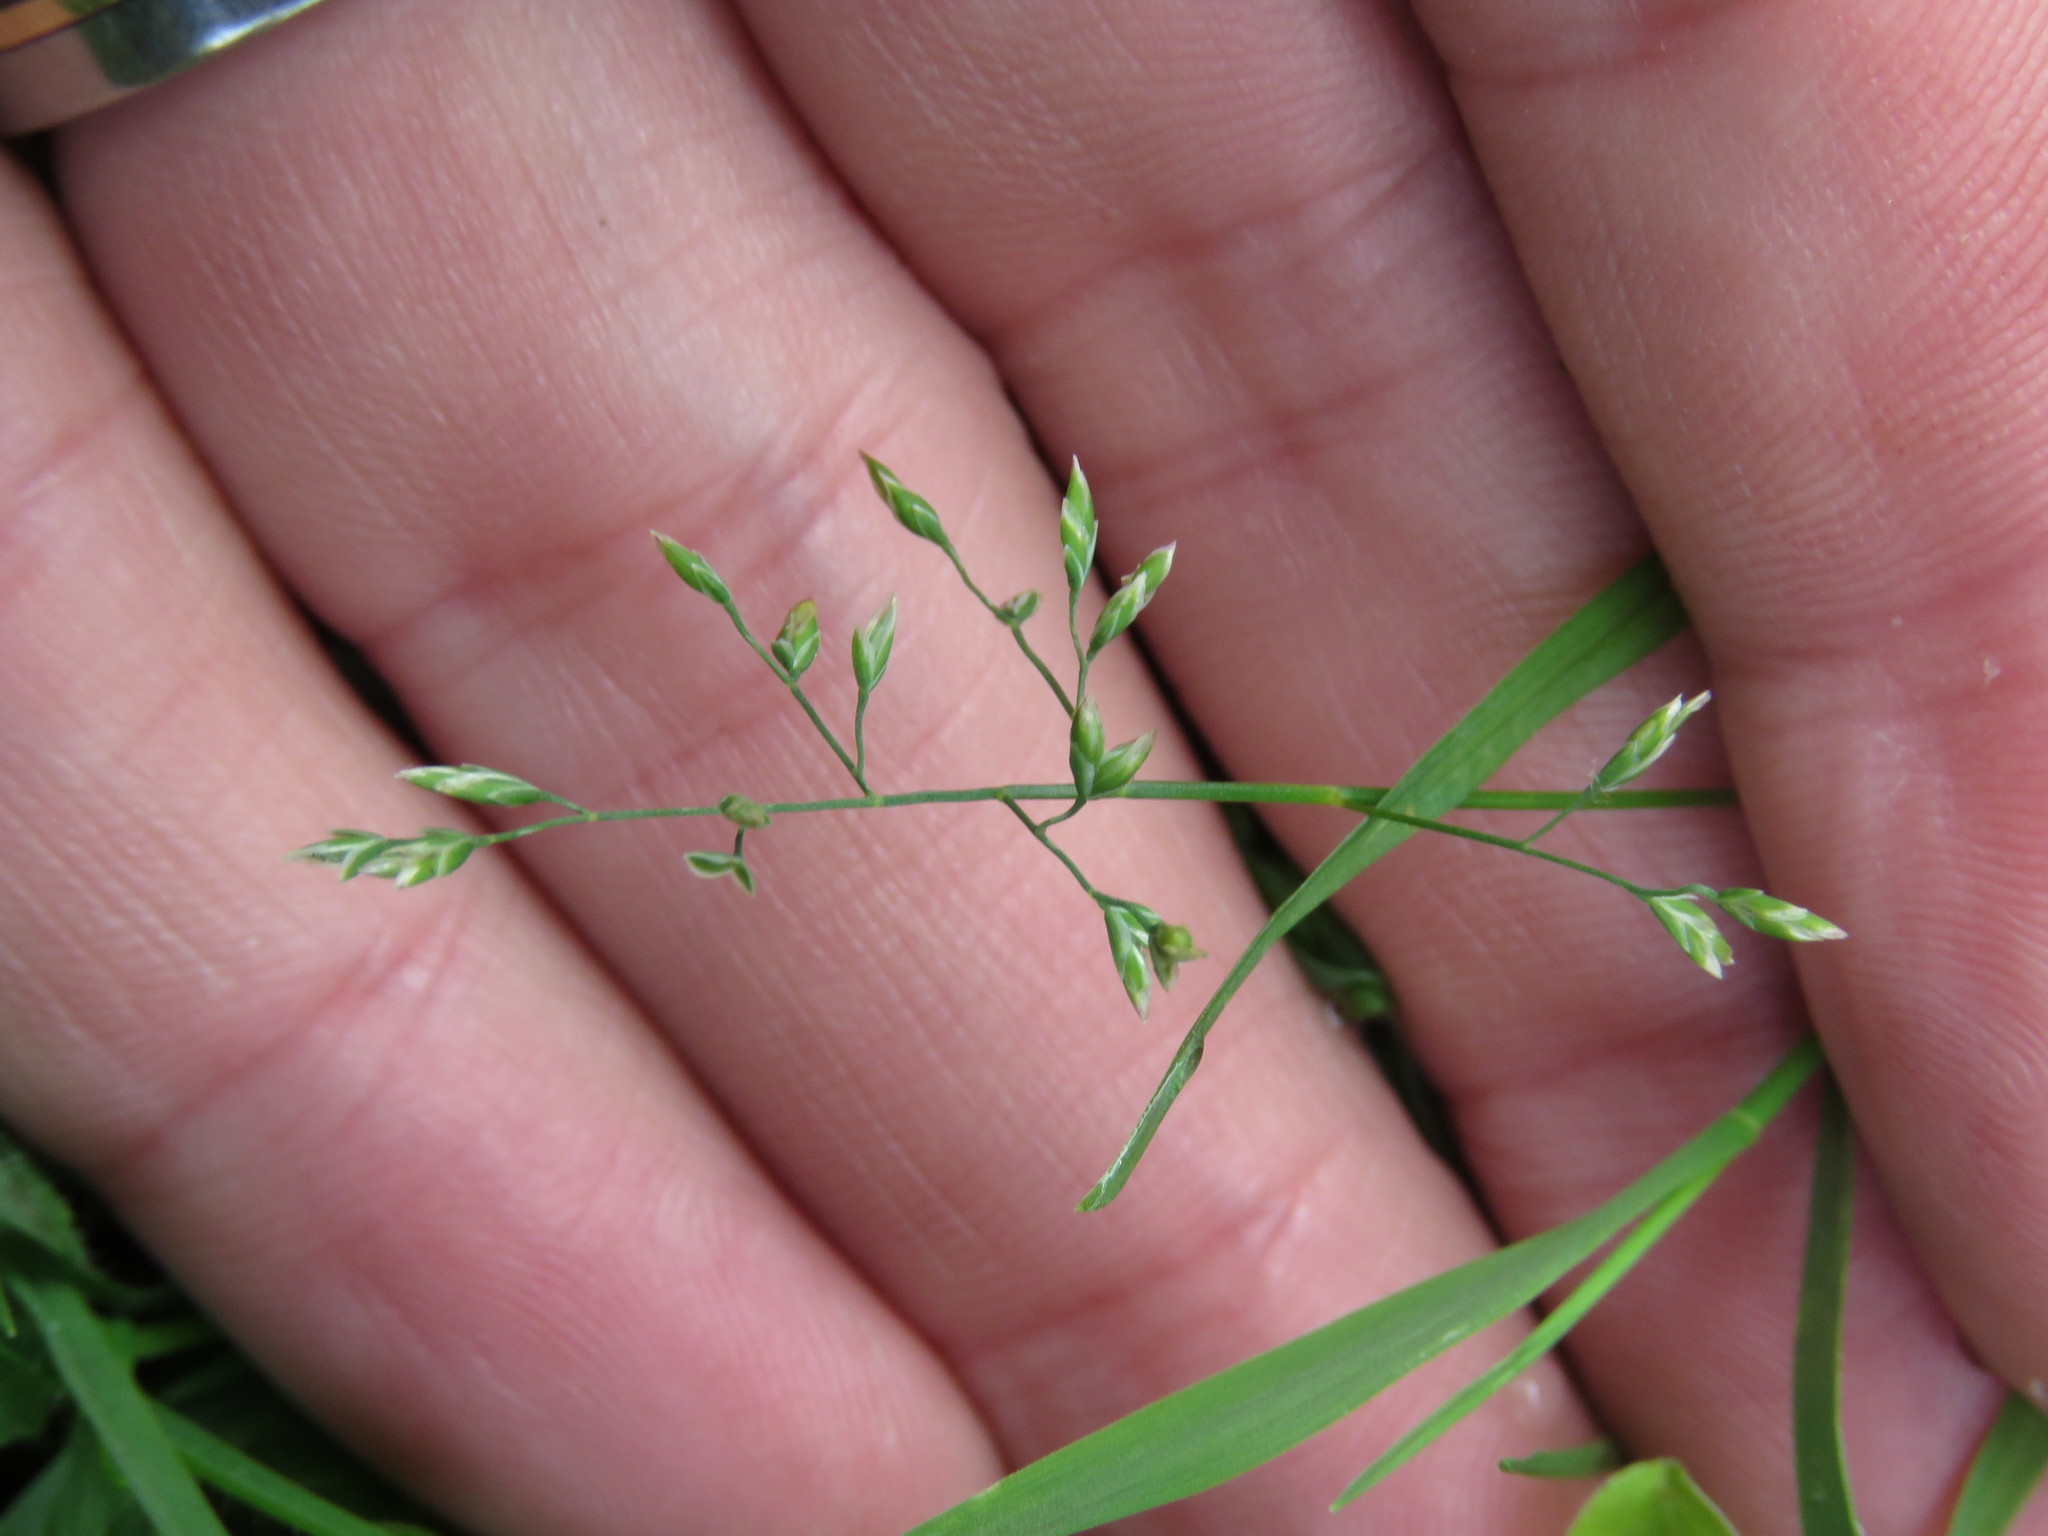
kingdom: Plantae
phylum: Tracheophyta
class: Liliopsida
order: Poales
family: Poaceae
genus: Poa
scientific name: Poa annua
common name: Annual bluegrass
